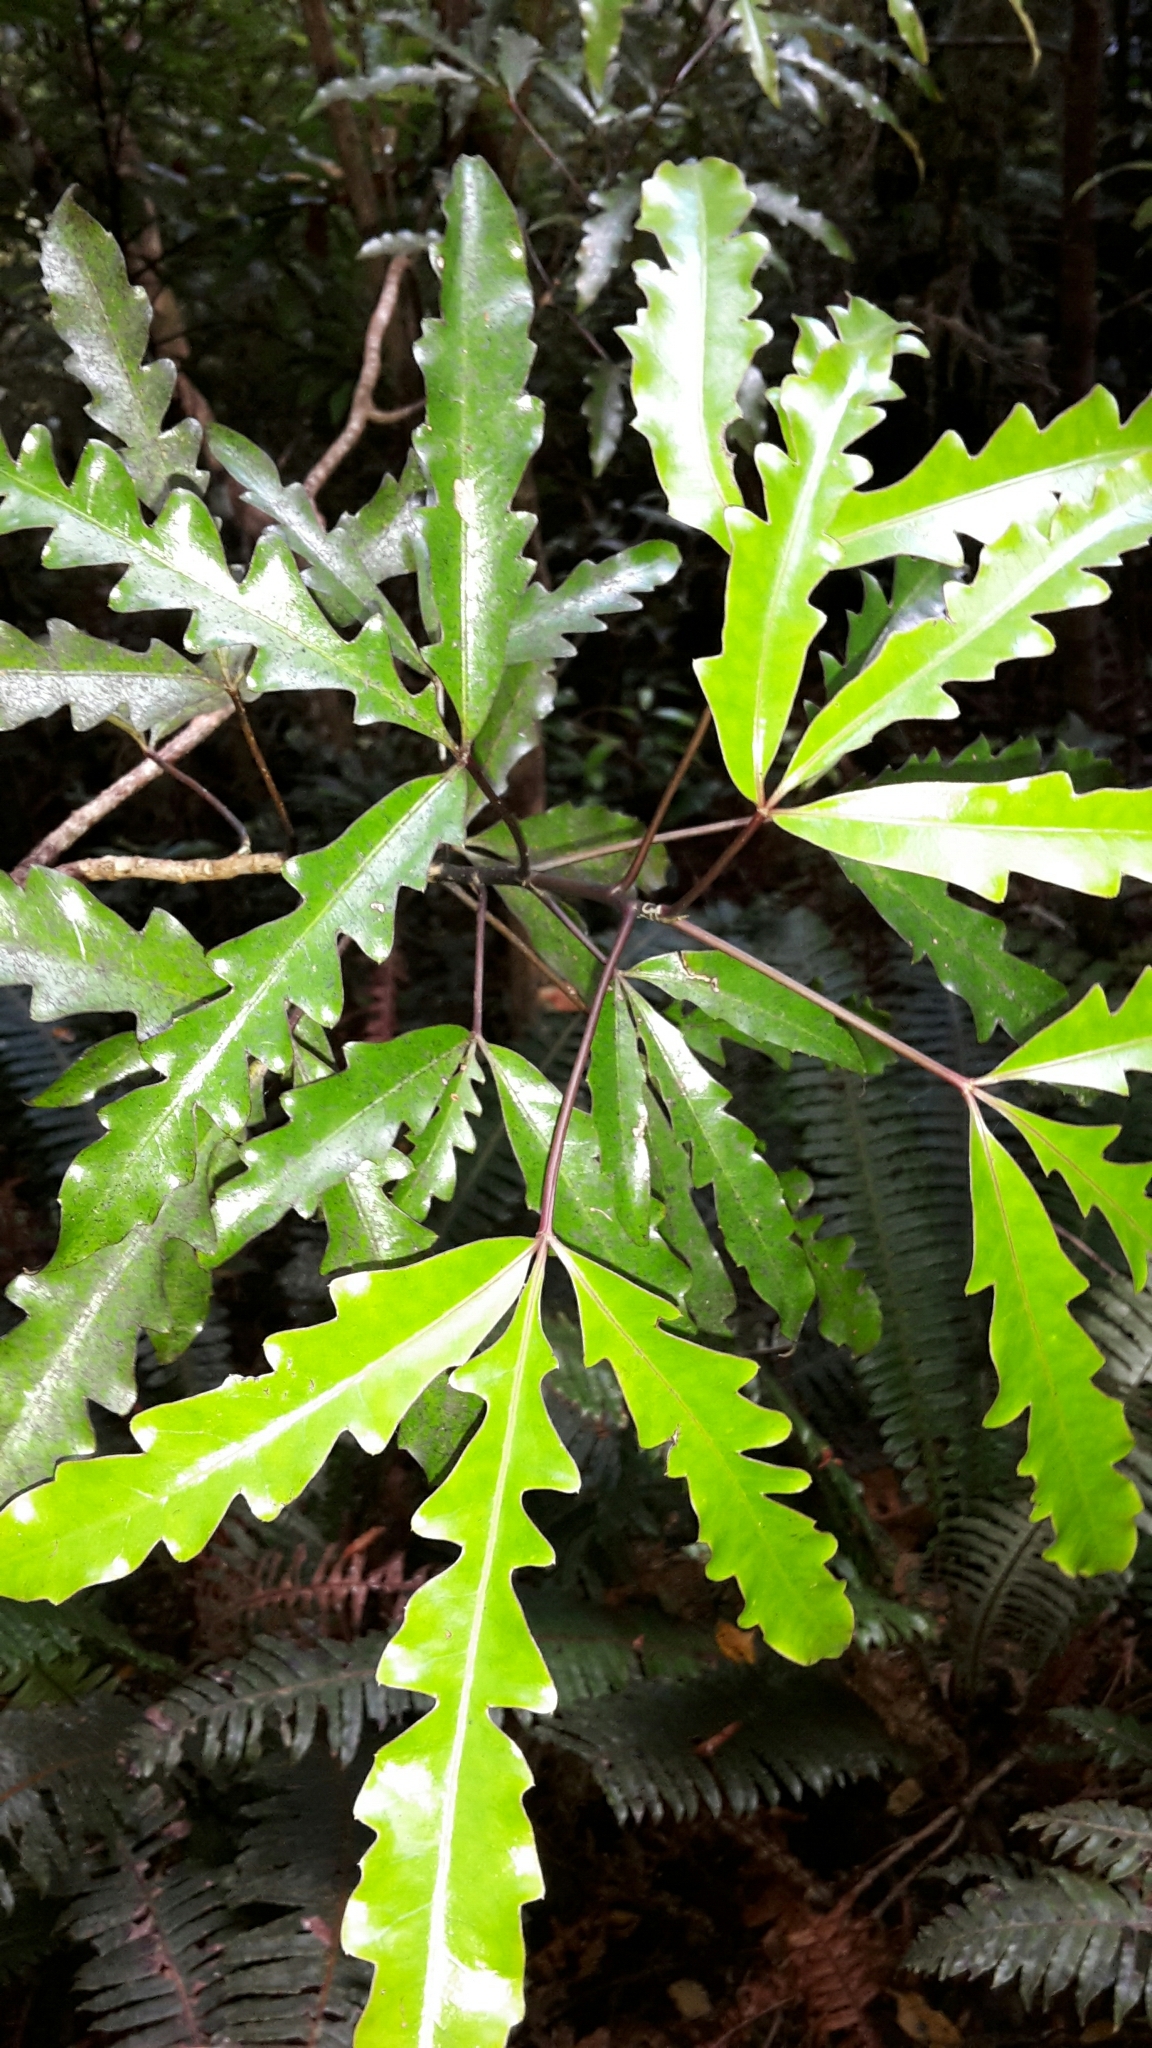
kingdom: Plantae
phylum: Tracheophyta
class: Magnoliopsida
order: Apiales
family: Araliaceae
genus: Raukaua
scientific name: Raukaua edgerleyi
